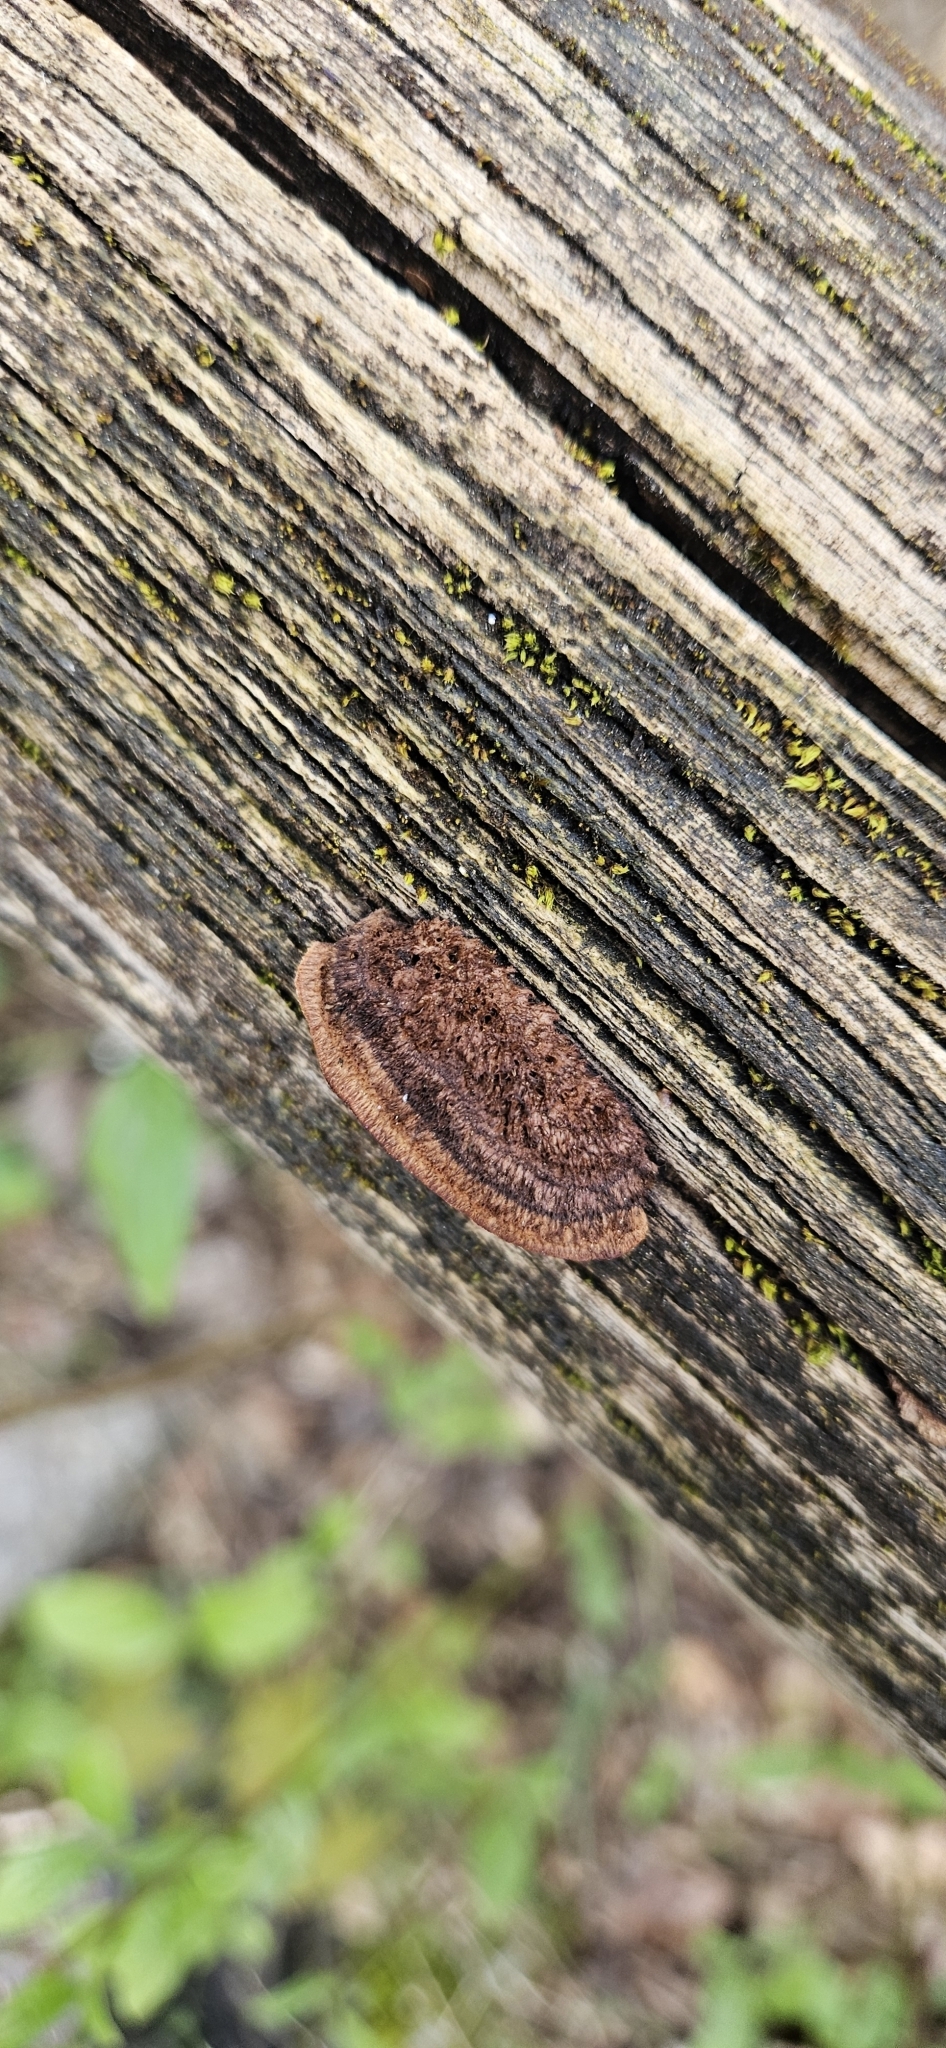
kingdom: Fungi
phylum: Basidiomycota
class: Agaricomycetes
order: Gloeophyllales
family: Gloeophyllaceae
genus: Gloeophyllum
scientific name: Gloeophyllum sepiarium
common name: Conifer mazegill
